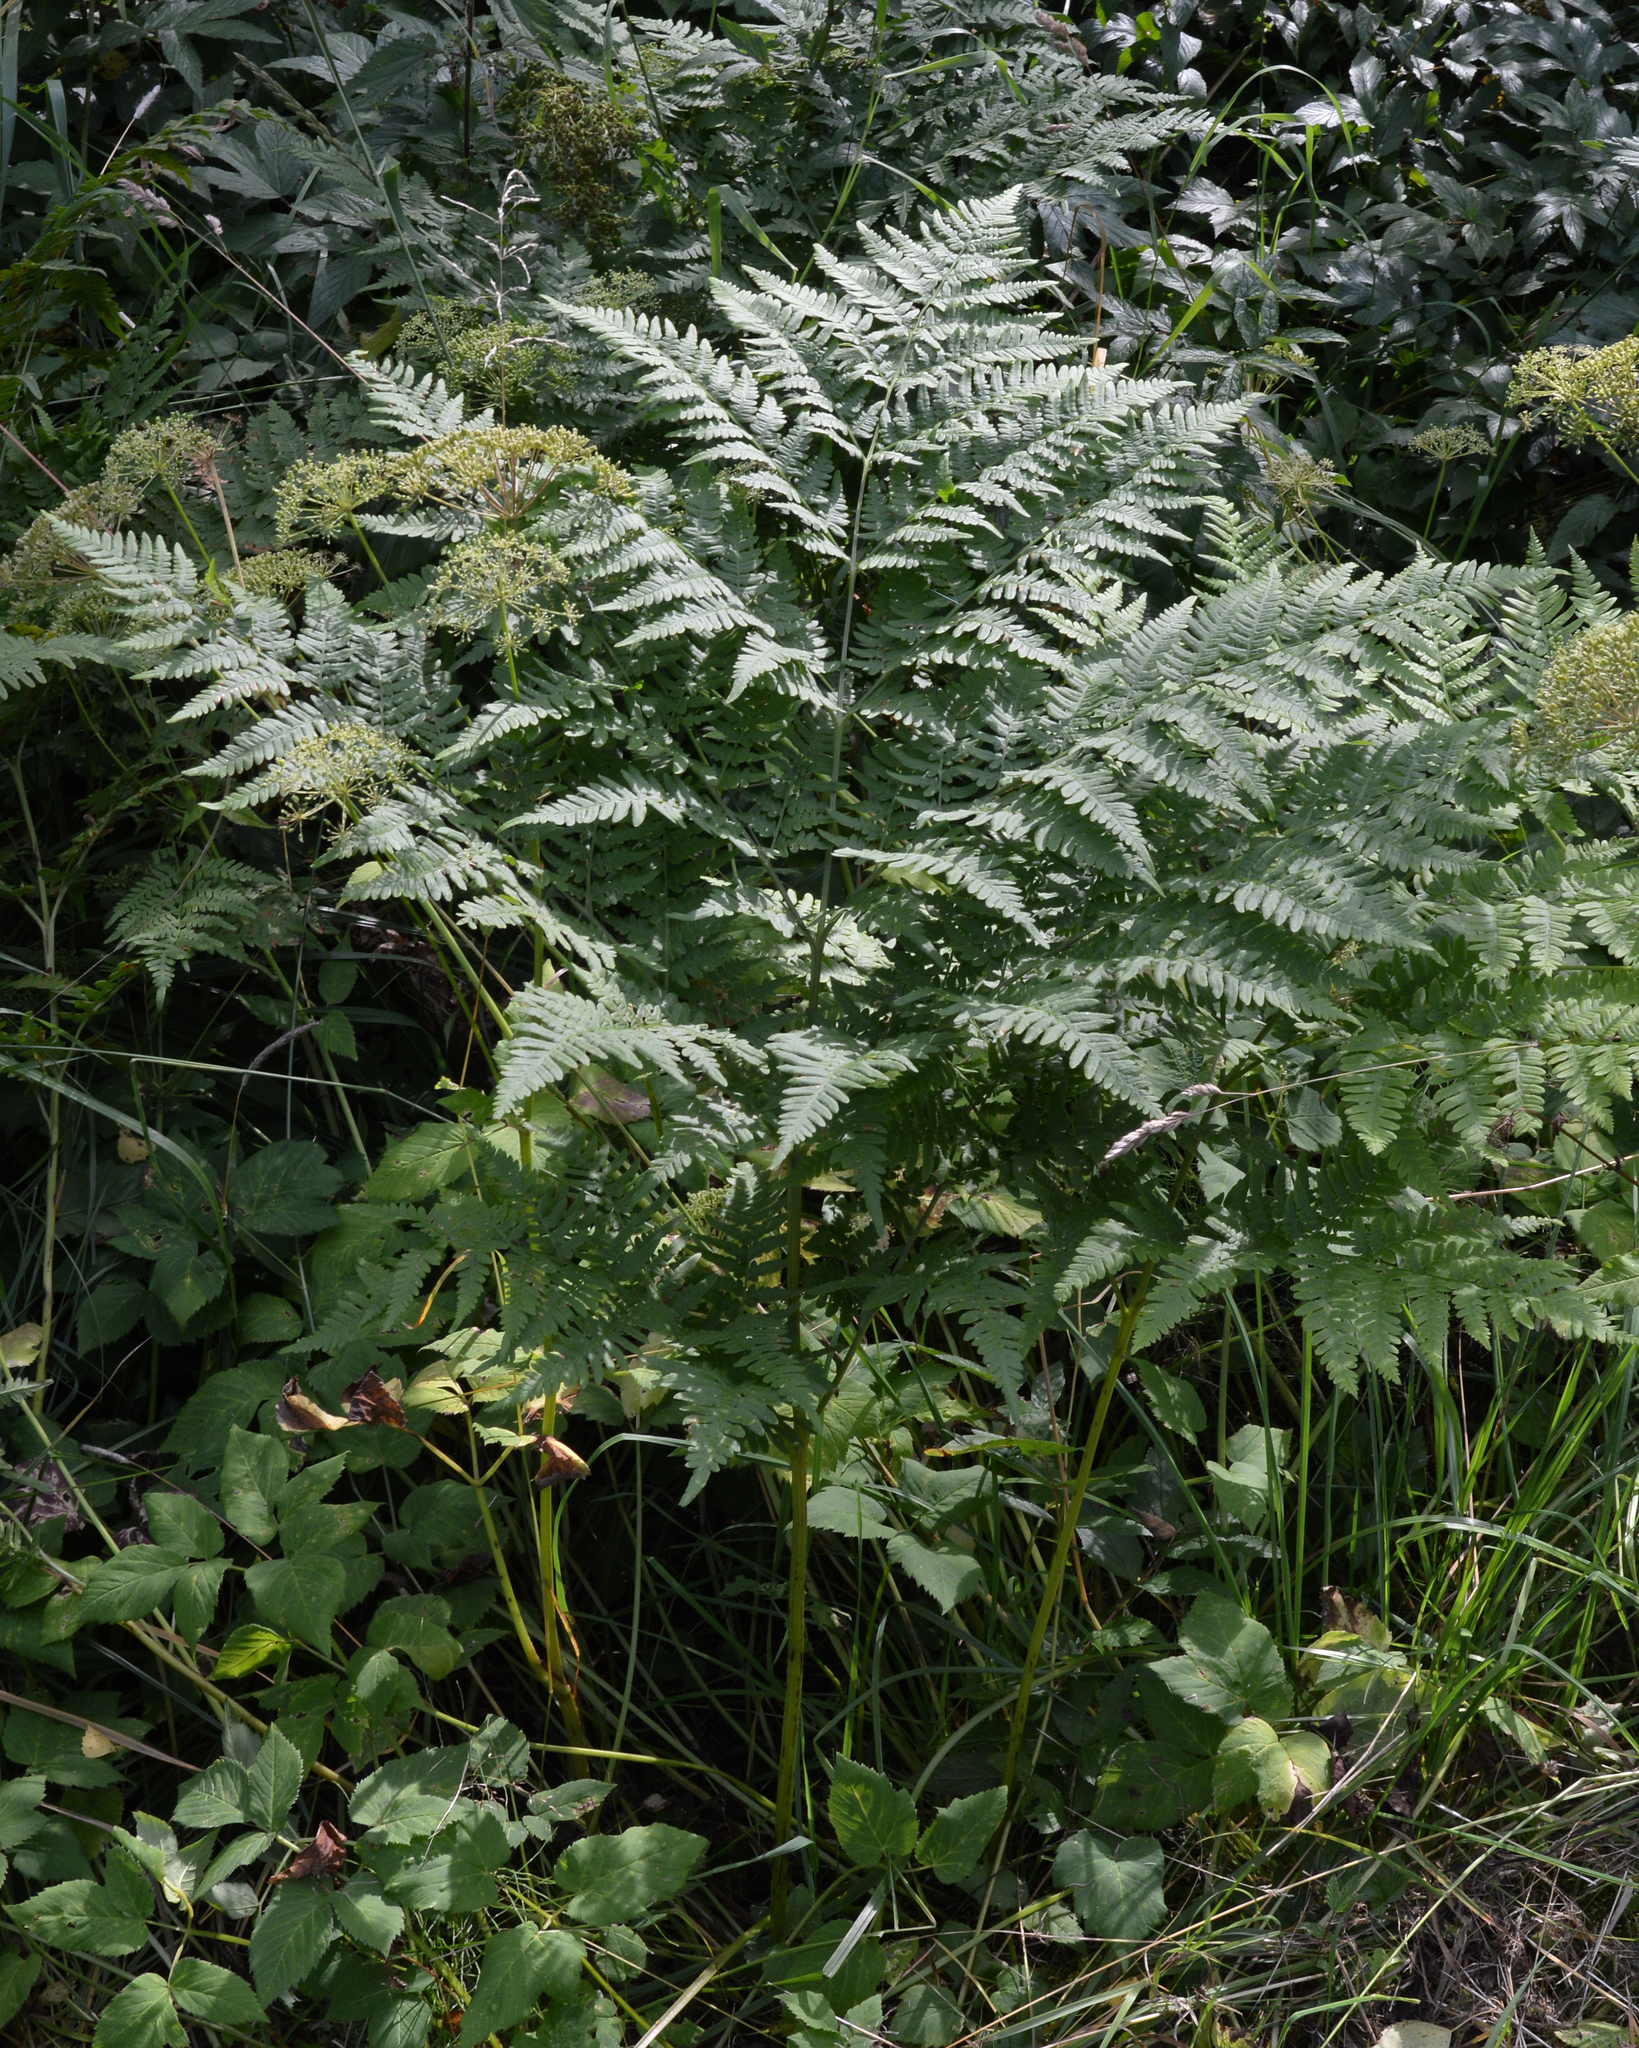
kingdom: Plantae
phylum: Tracheophyta
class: Polypodiopsida
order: Polypodiales
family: Dennstaedtiaceae
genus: Pteridium
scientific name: Pteridium aquilinum
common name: Bracken
